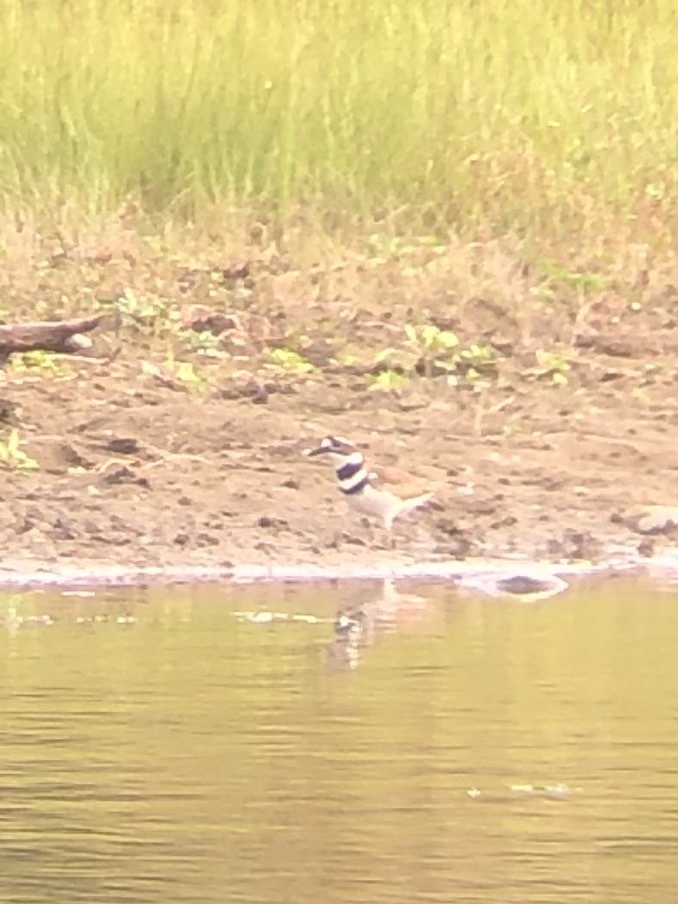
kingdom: Animalia
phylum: Chordata
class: Aves
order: Charadriiformes
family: Charadriidae
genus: Charadrius
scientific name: Charadrius vociferus
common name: Killdeer
